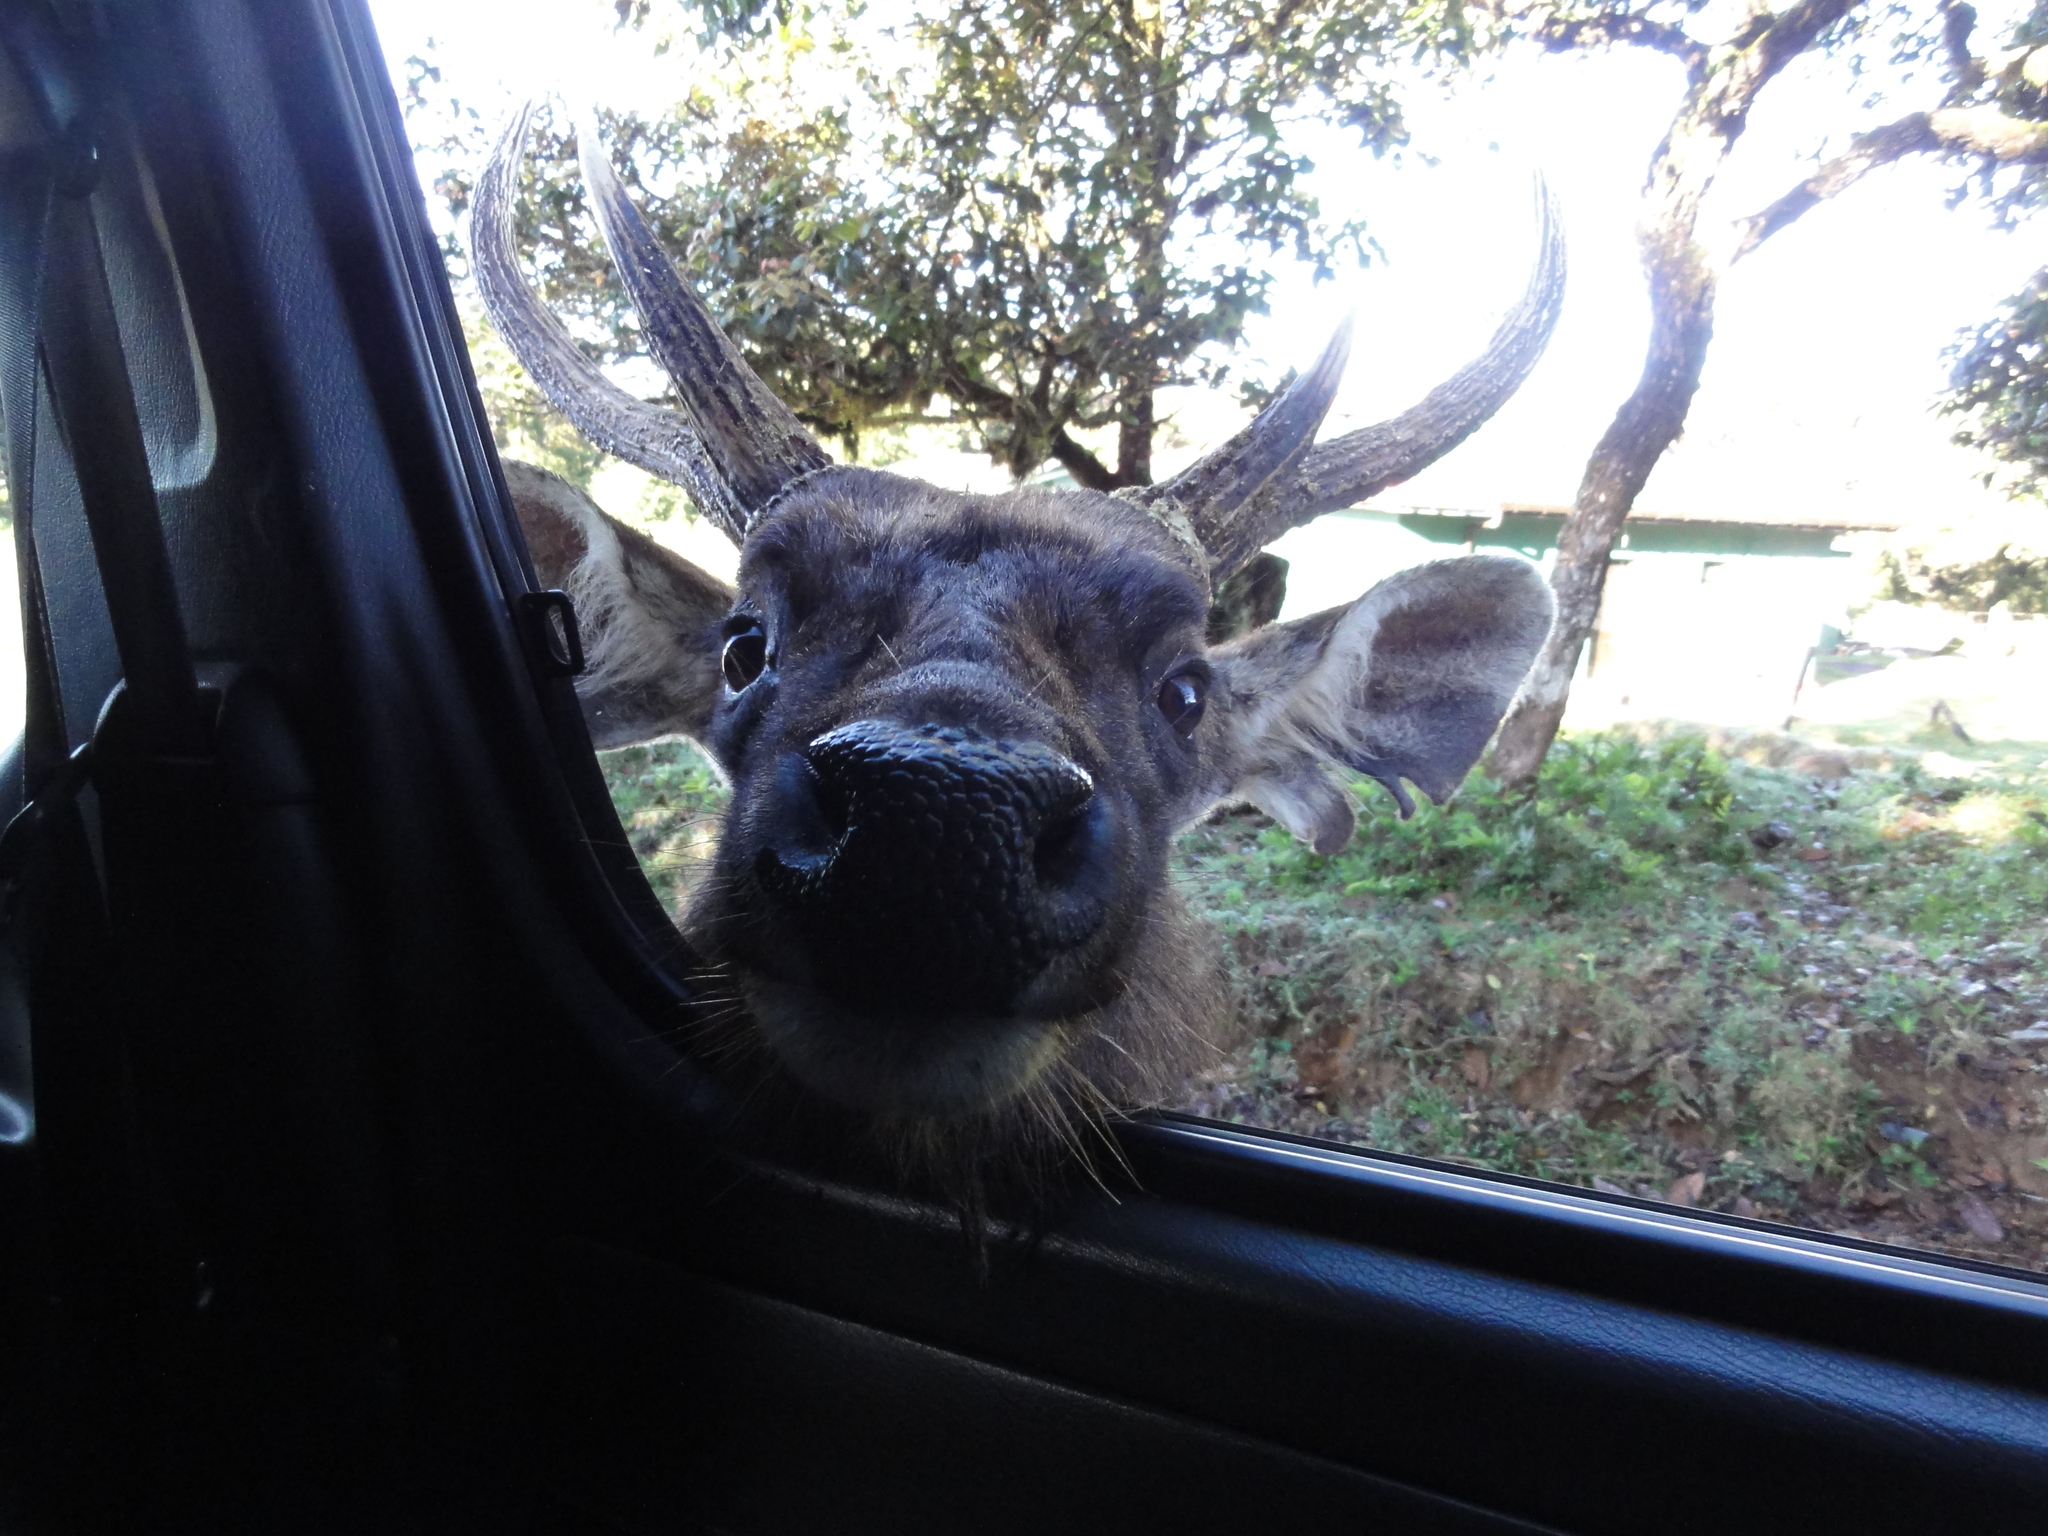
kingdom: Animalia
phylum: Chordata
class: Mammalia
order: Artiodactyla
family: Cervidae
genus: Rusa
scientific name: Rusa unicolor
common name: Sambar
